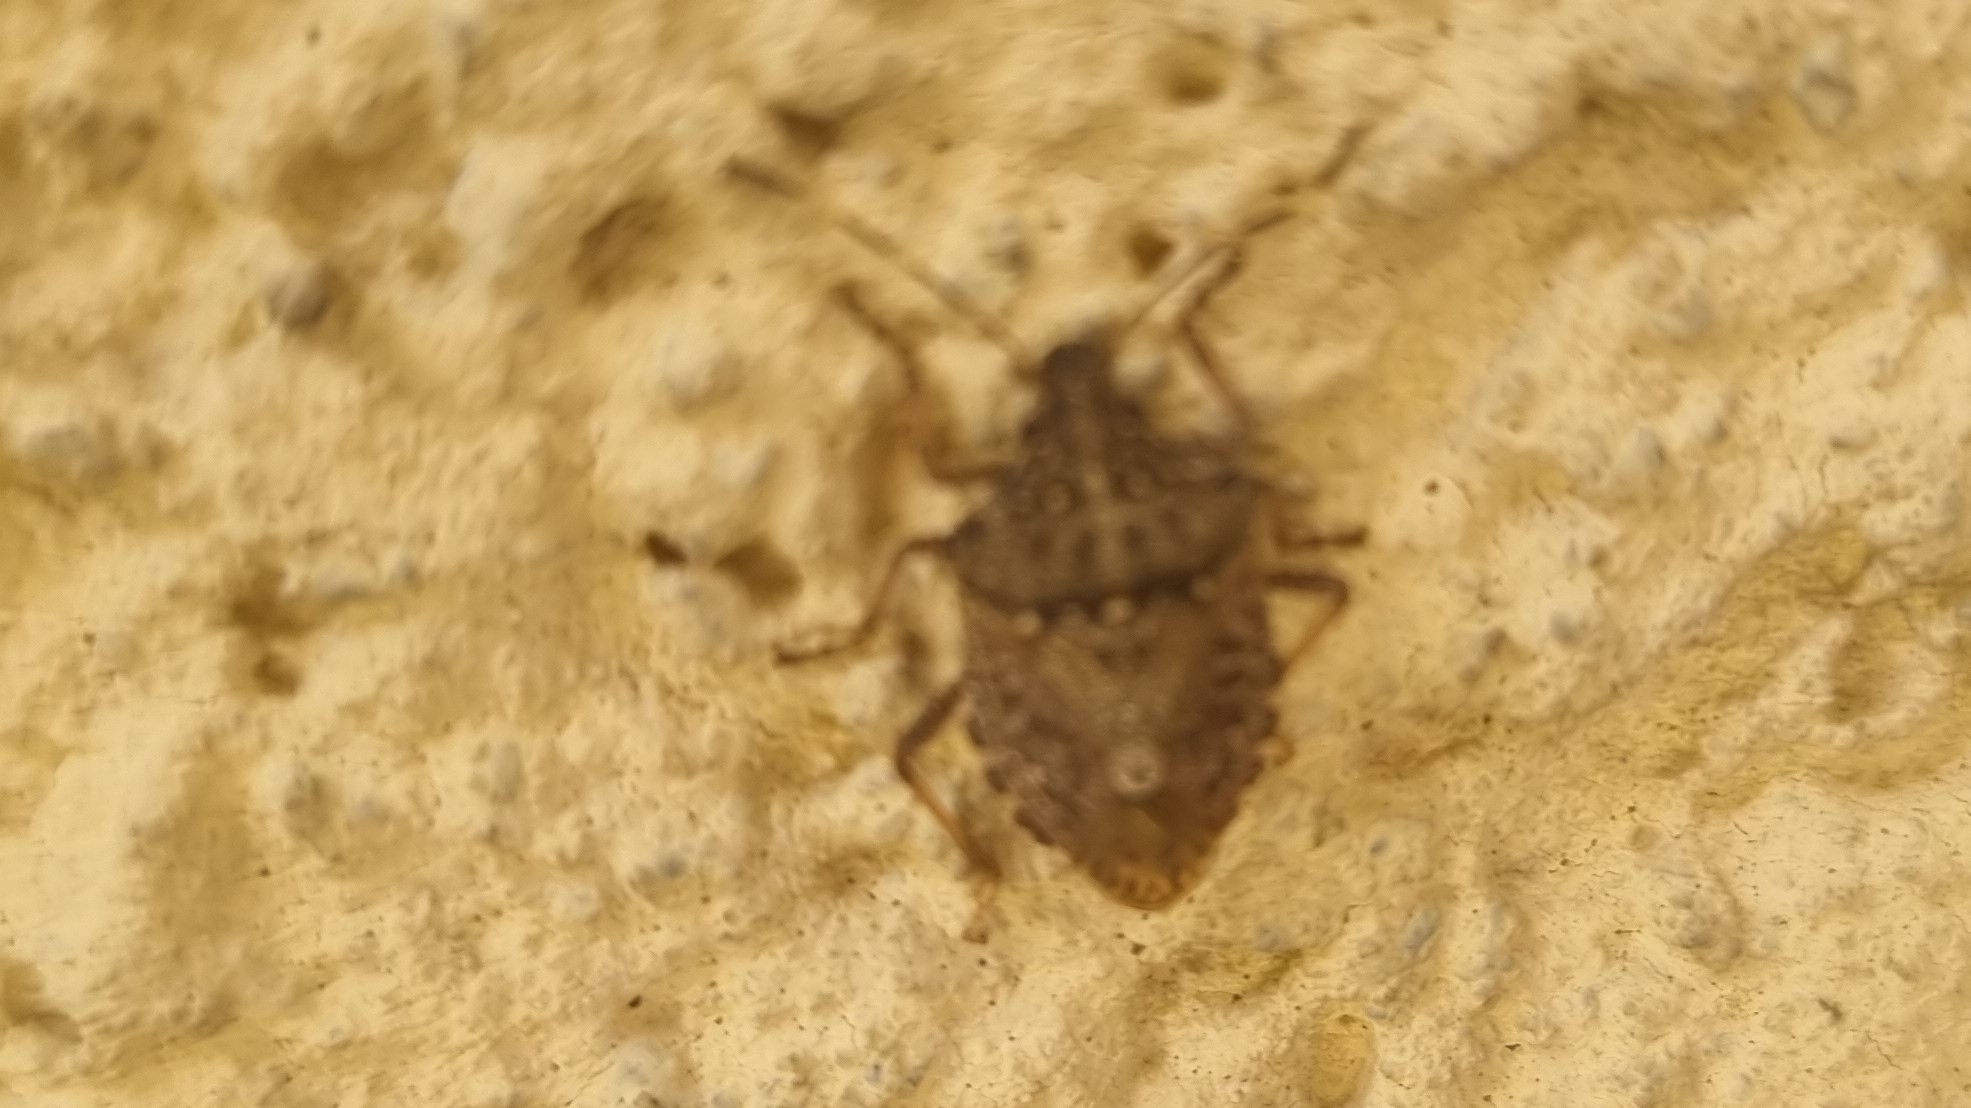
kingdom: Animalia
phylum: Arthropoda
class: Insecta
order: Hemiptera
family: Pentatomidae
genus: Halyomorpha
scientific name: Halyomorpha halys
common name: Brown marmorated stink bug
